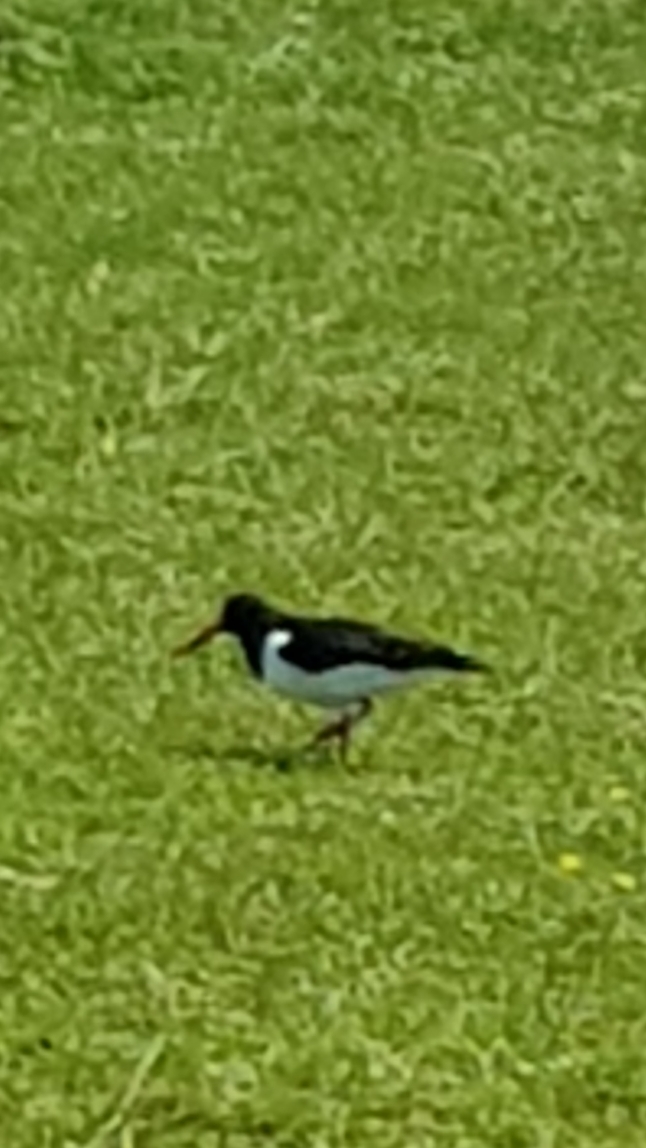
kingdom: Animalia
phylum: Chordata
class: Aves
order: Charadriiformes
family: Haematopodidae
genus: Haematopus
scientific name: Haematopus ostralegus
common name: Eurasian oystercatcher
